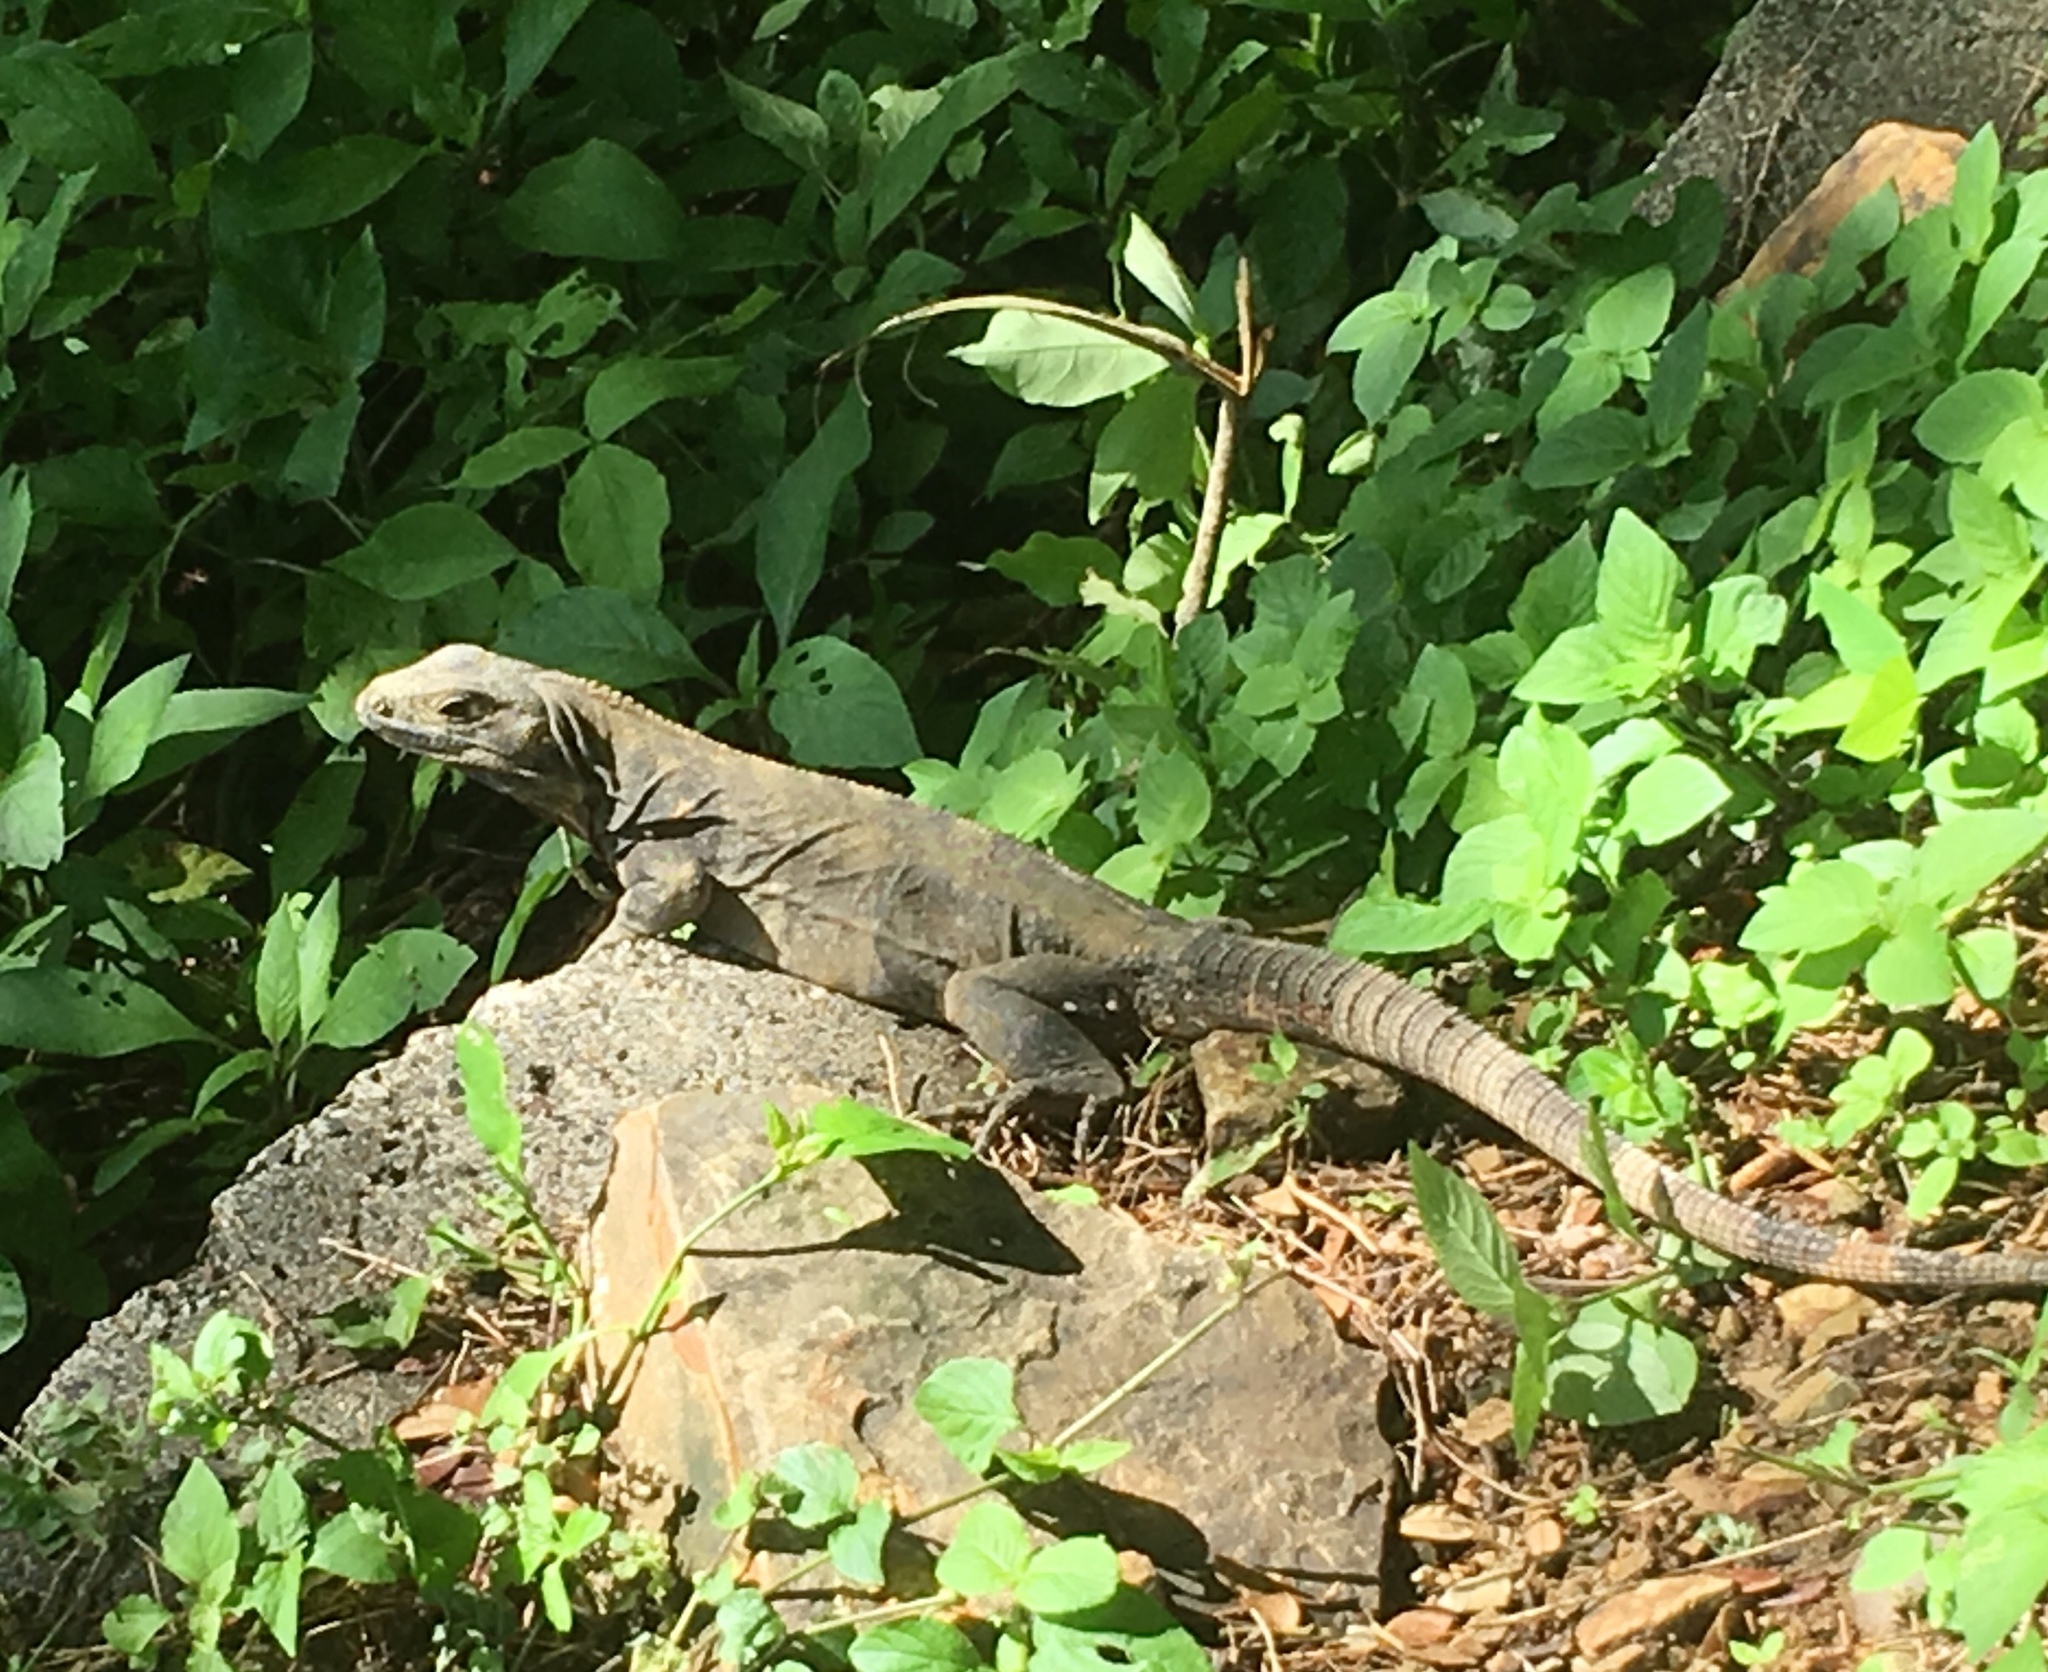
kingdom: Animalia
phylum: Chordata
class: Squamata
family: Iguanidae
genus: Ctenosaura
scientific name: Ctenosaura similis
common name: Black spiny-tailed iguana
